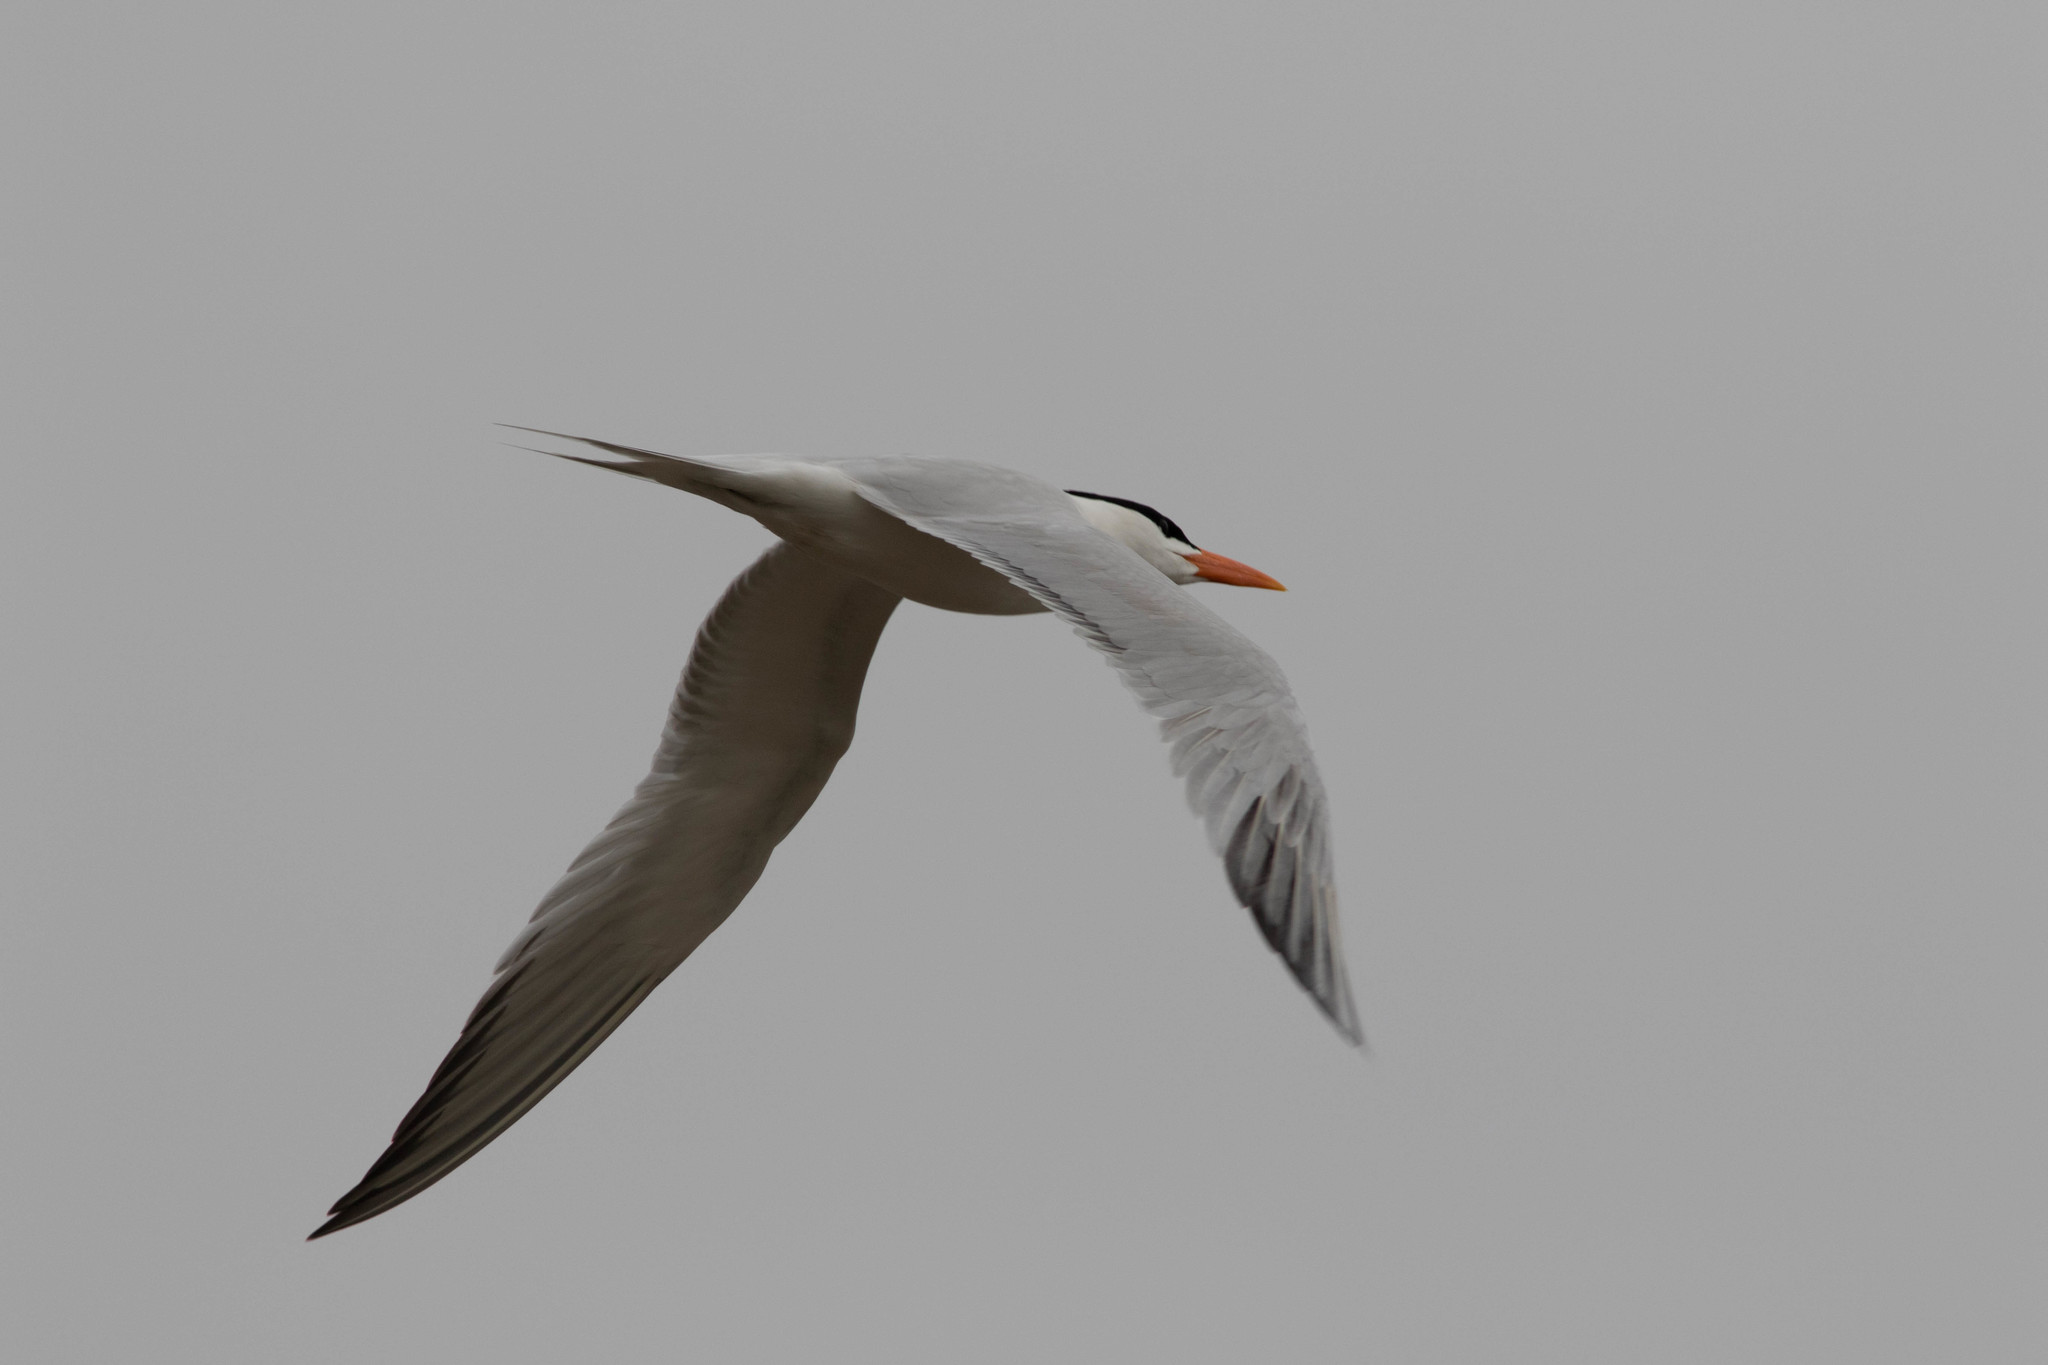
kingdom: Animalia
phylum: Chordata
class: Aves
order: Charadriiformes
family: Laridae
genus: Thalasseus
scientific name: Thalasseus maximus
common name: Royal tern
